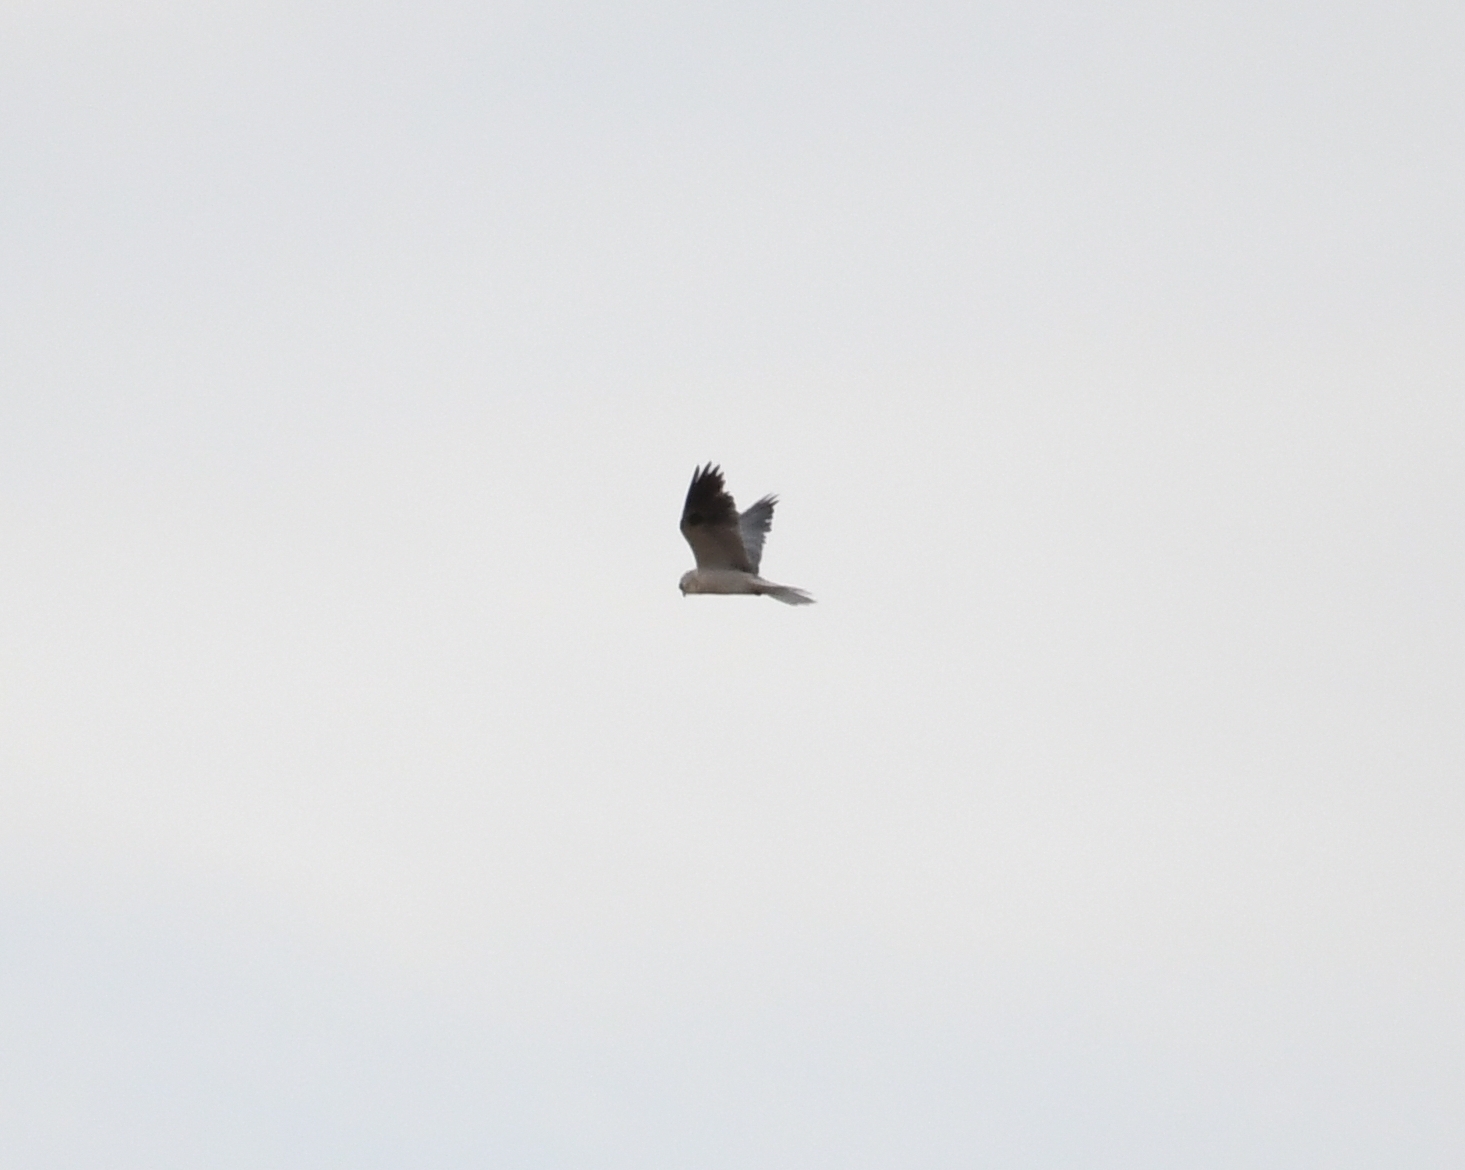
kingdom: Animalia
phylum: Chordata
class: Aves
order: Accipitriformes
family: Accipitridae
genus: Elanus
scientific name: Elanus leucurus
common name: White-tailed kite
